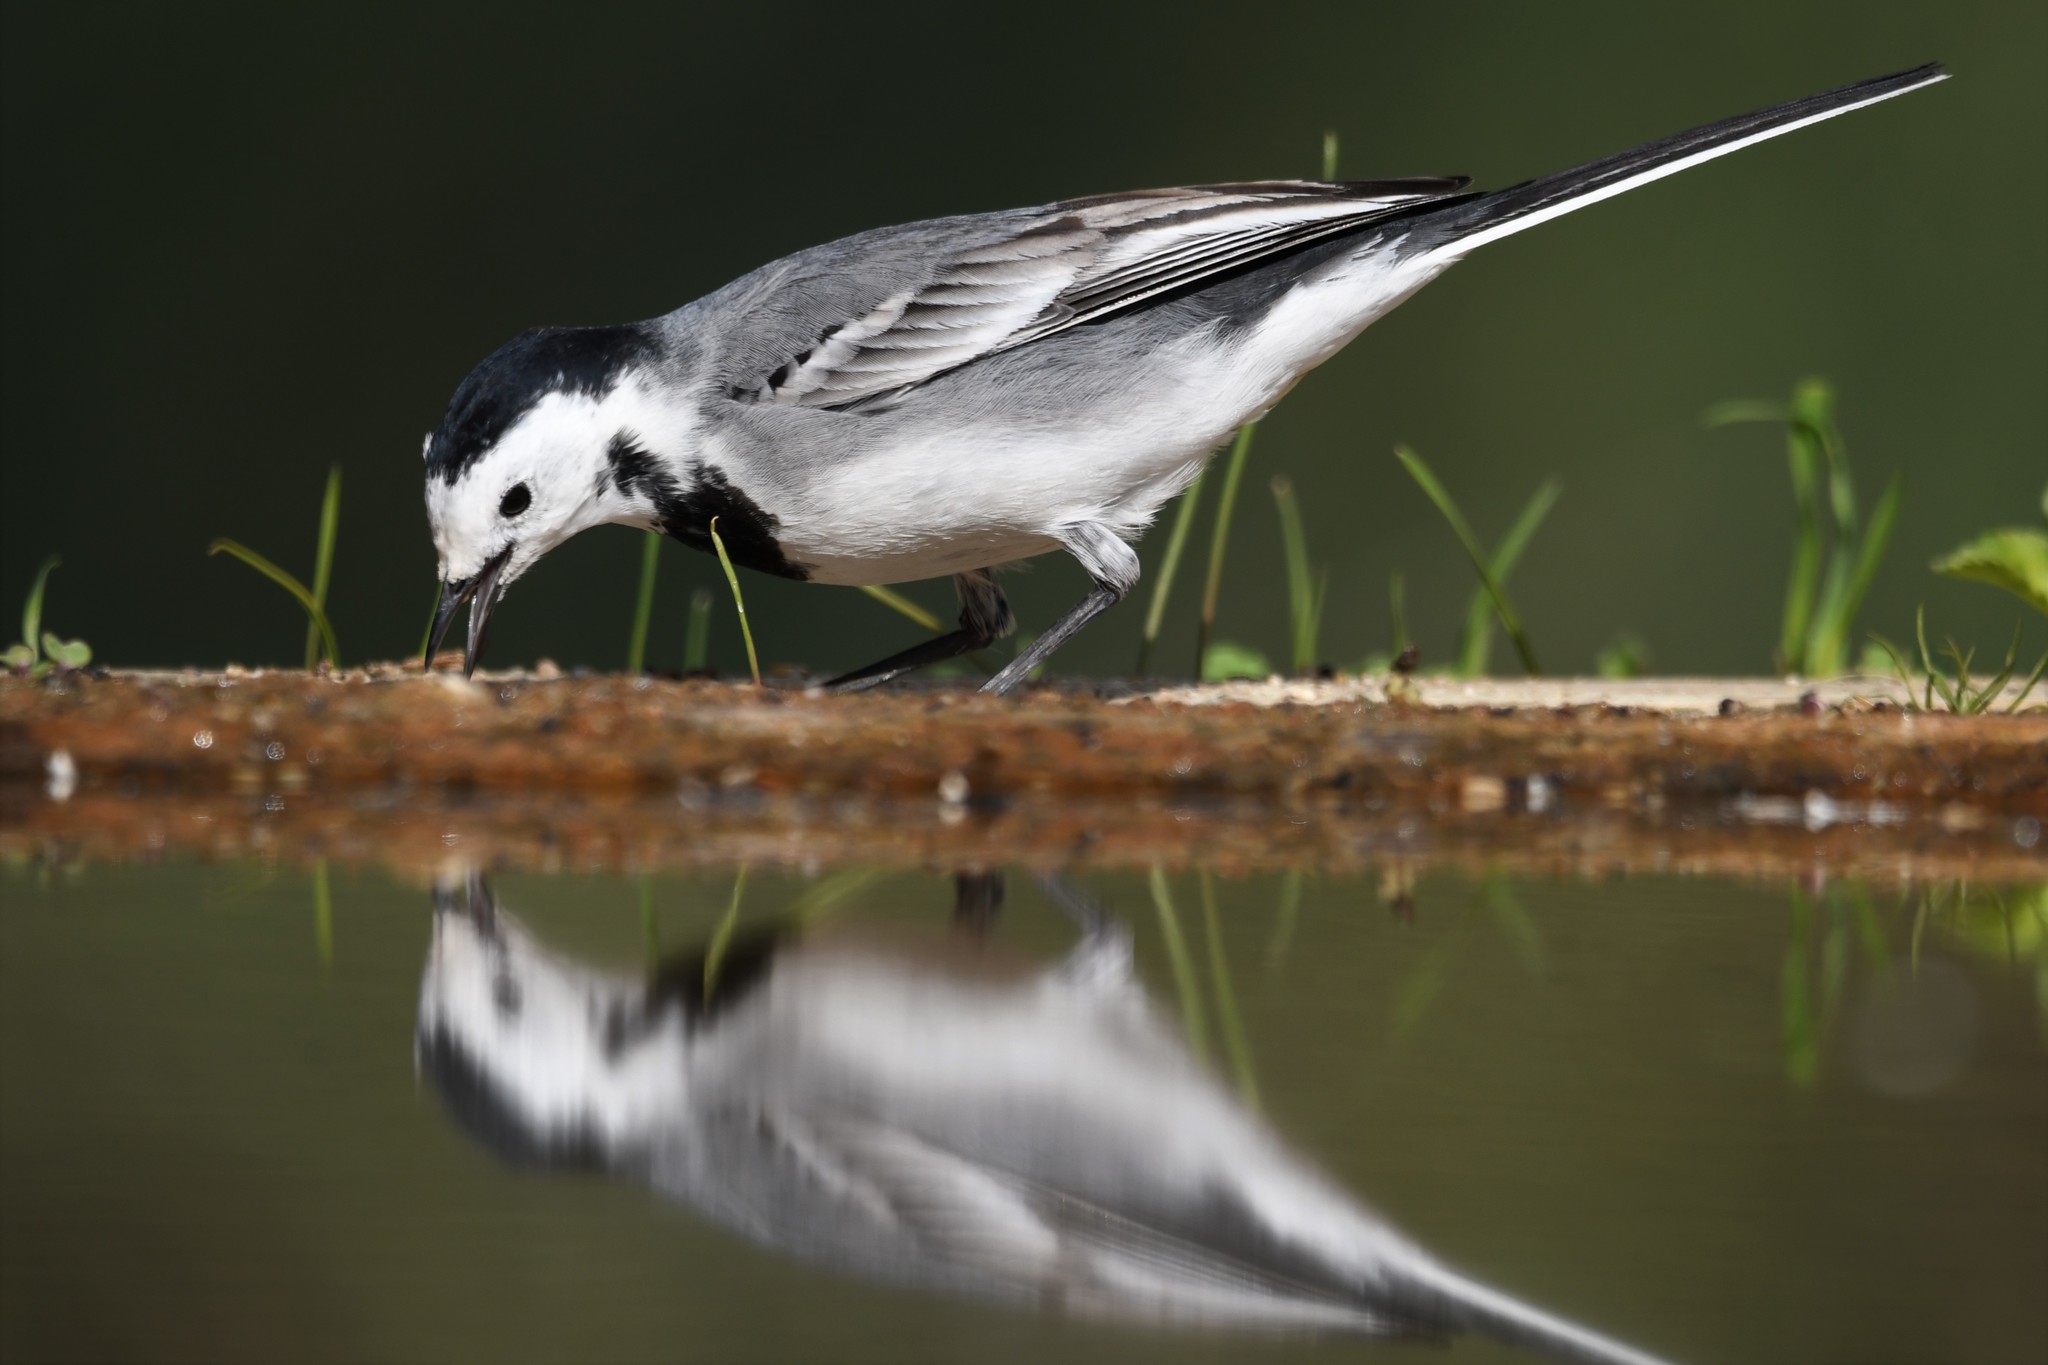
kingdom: Animalia
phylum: Chordata
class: Aves
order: Passeriformes
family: Motacillidae
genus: Motacilla
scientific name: Motacilla alba
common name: White wagtail
